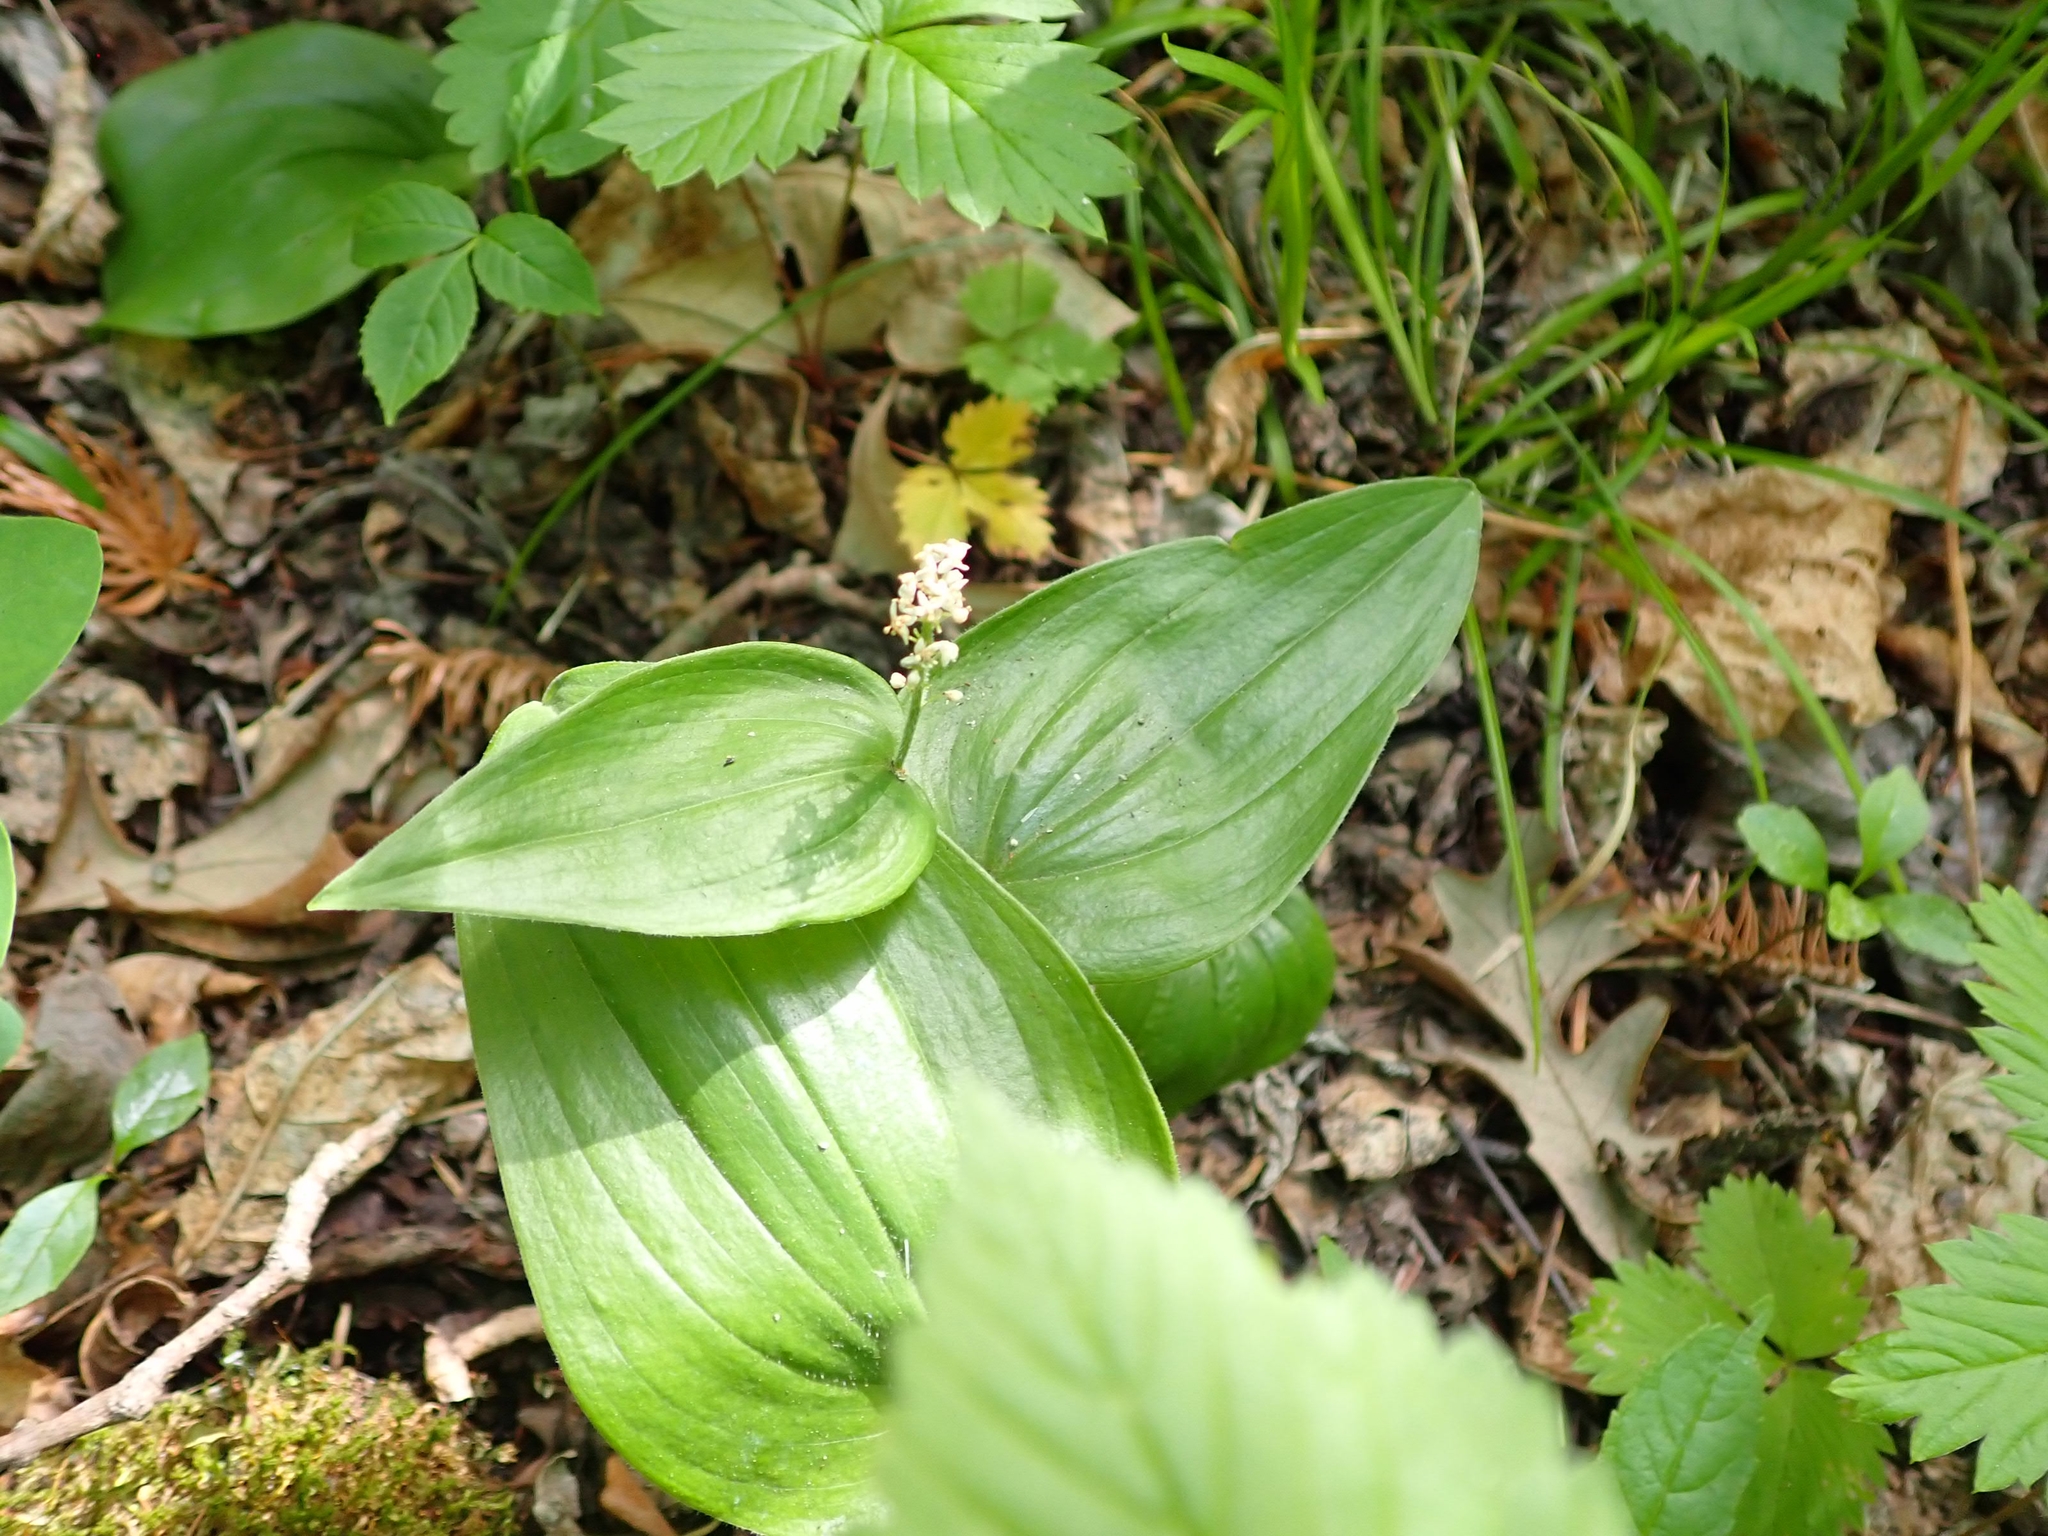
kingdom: Plantae
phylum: Tracheophyta
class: Liliopsida
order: Asparagales
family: Asparagaceae
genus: Maianthemum
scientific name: Maianthemum canadense
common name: False lily-of-the-valley
